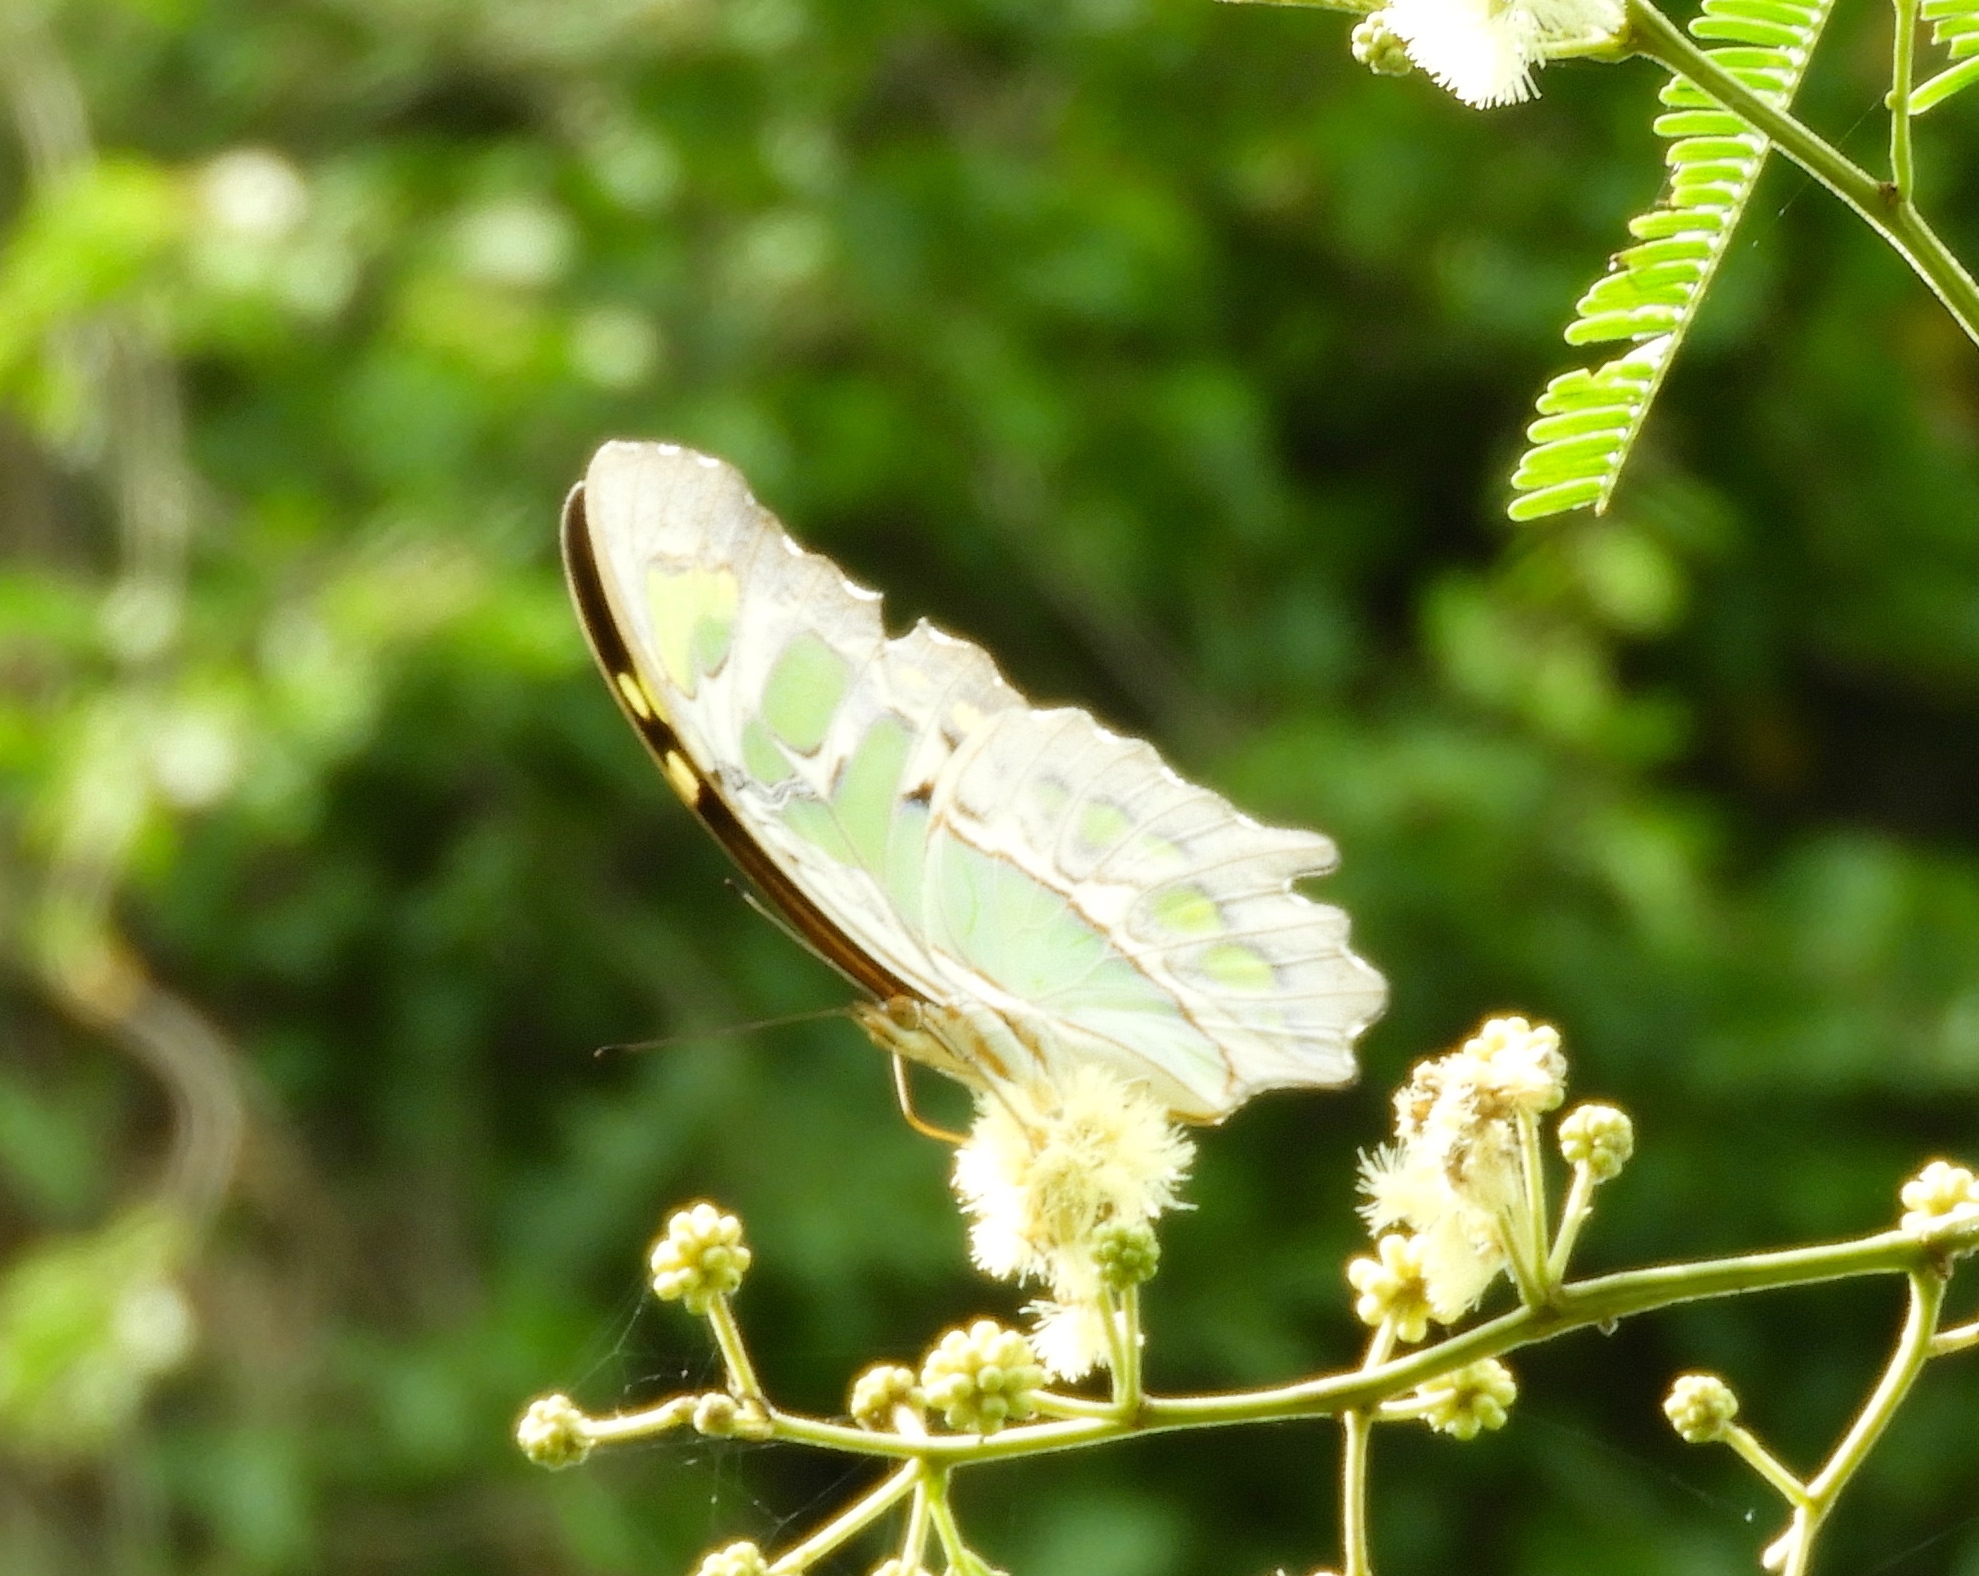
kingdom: Animalia
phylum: Arthropoda
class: Insecta
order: Lepidoptera
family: Nymphalidae
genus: Siproeta
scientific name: Siproeta stelenes
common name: Malachite
